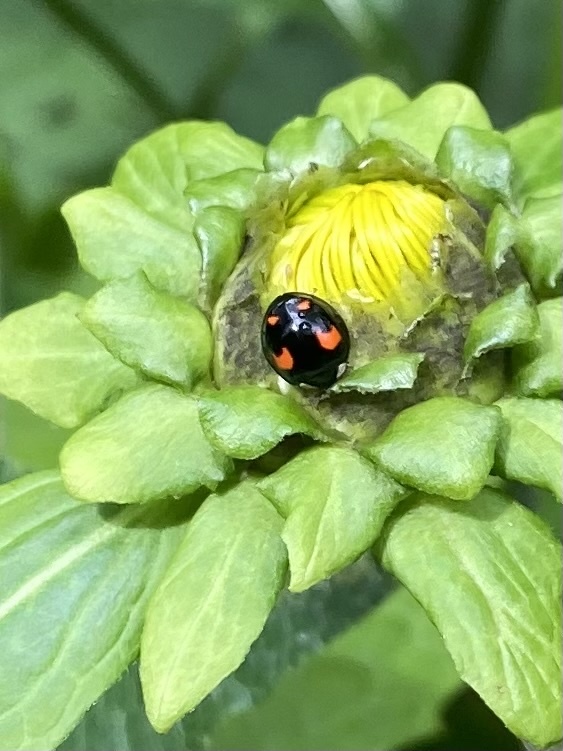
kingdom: Animalia
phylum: Arthropoda
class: Insecta
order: Coleoptera
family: Coccinellidae
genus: Harmonia
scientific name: Harmonia axyridis
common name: Harlequin ladybird
